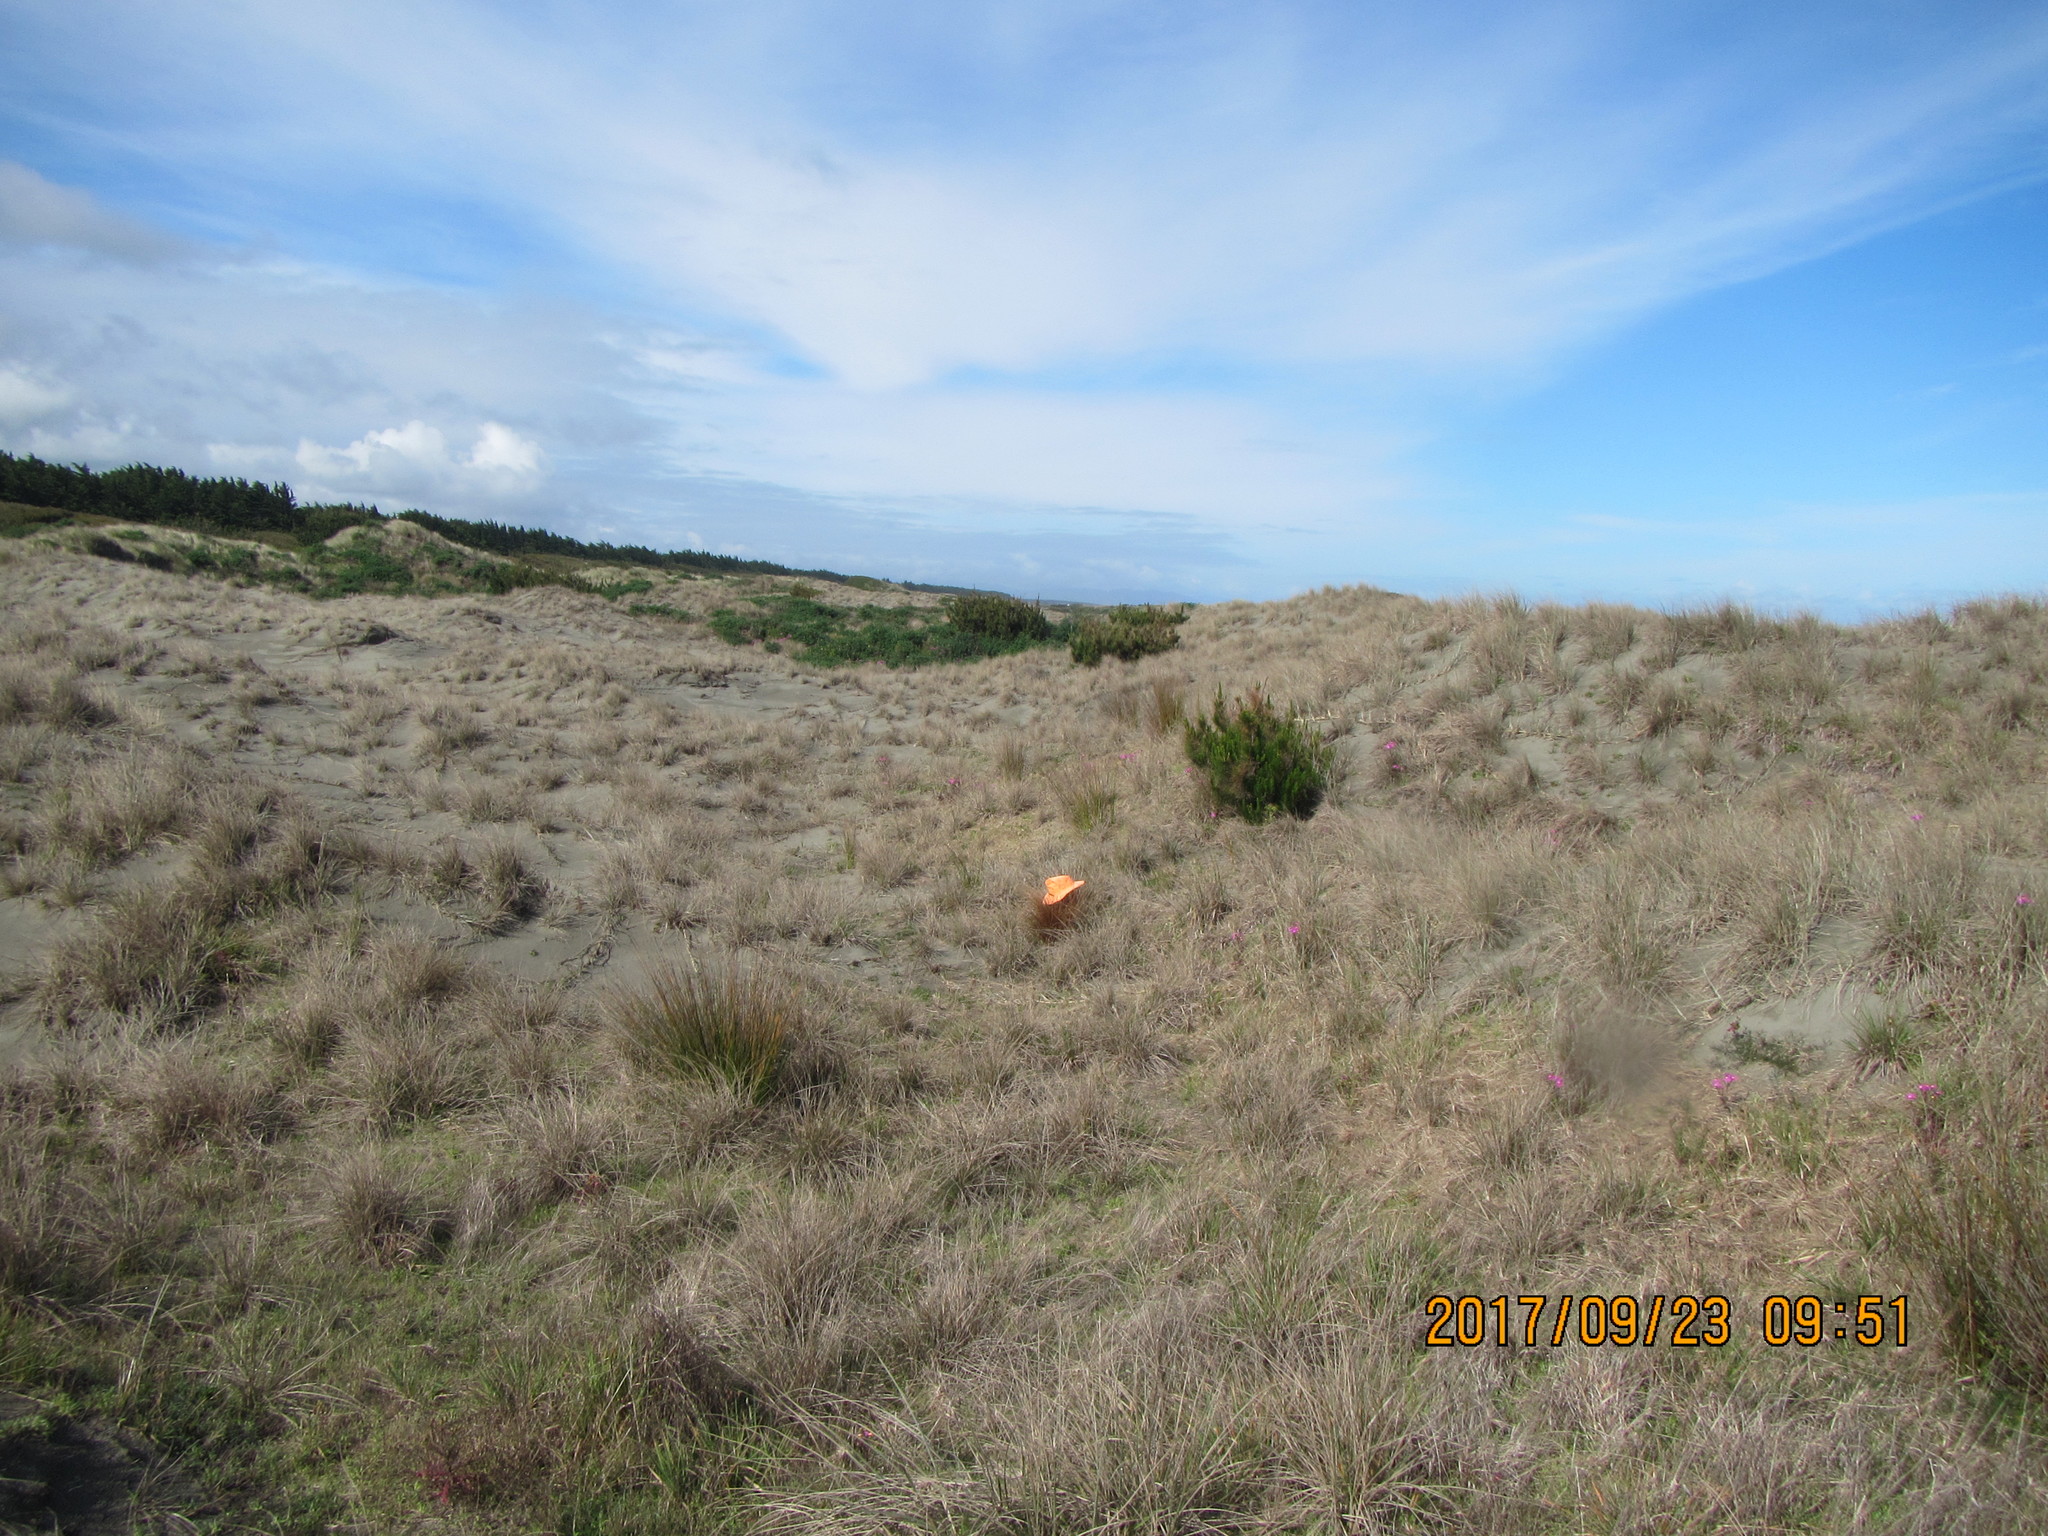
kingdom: Plantae
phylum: Tracheophyta
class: Pinopsida
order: Pinales
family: Pinaceae
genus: Pinus
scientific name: Pinus radiata
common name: Monterey pine
